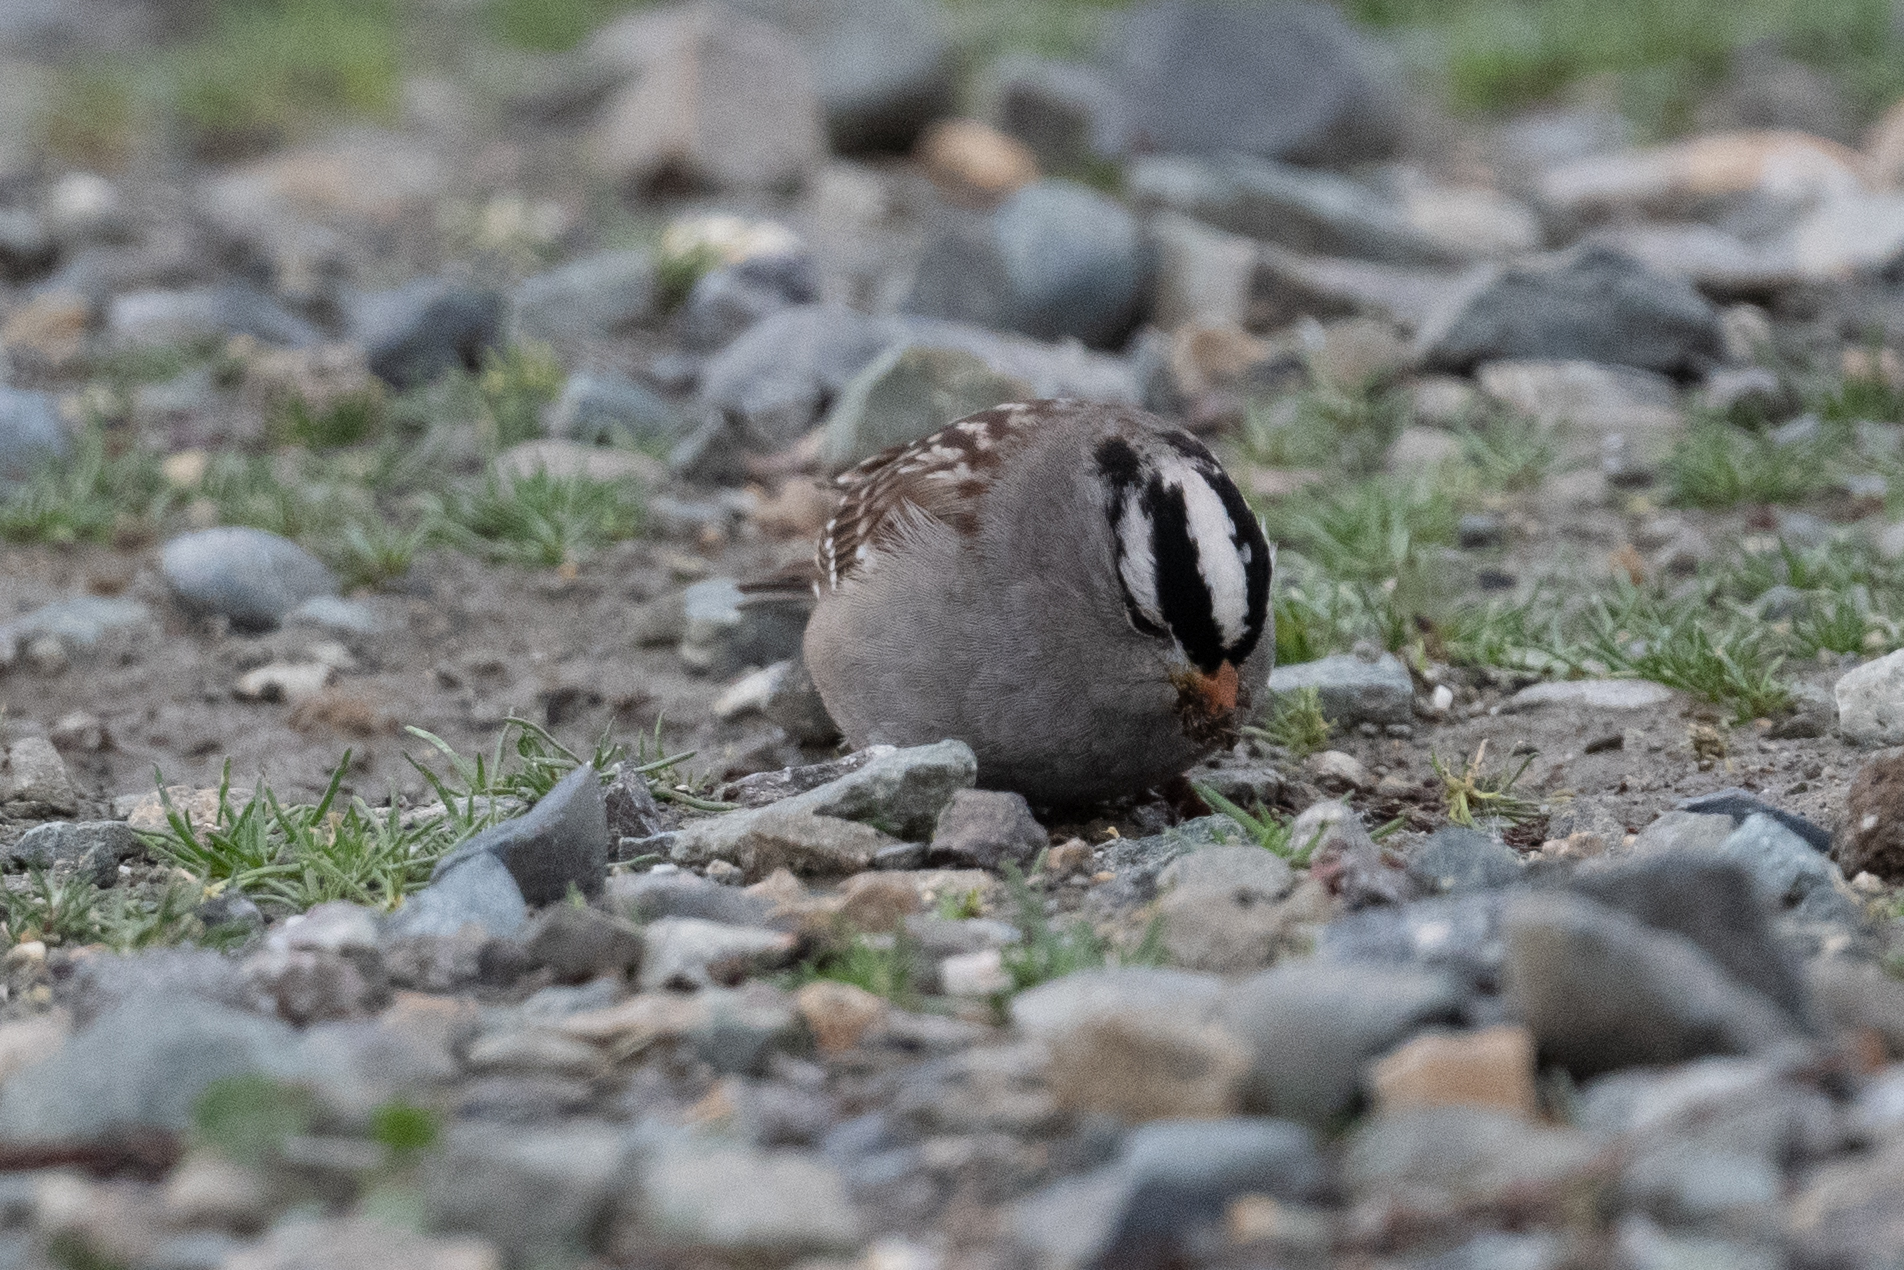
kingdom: Animalia
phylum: Chordata
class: Aves
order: Passeriformes
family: Passerellidae
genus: Zonotrichia
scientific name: Zonotrichia leucophrys
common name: White-crowned sparrow
